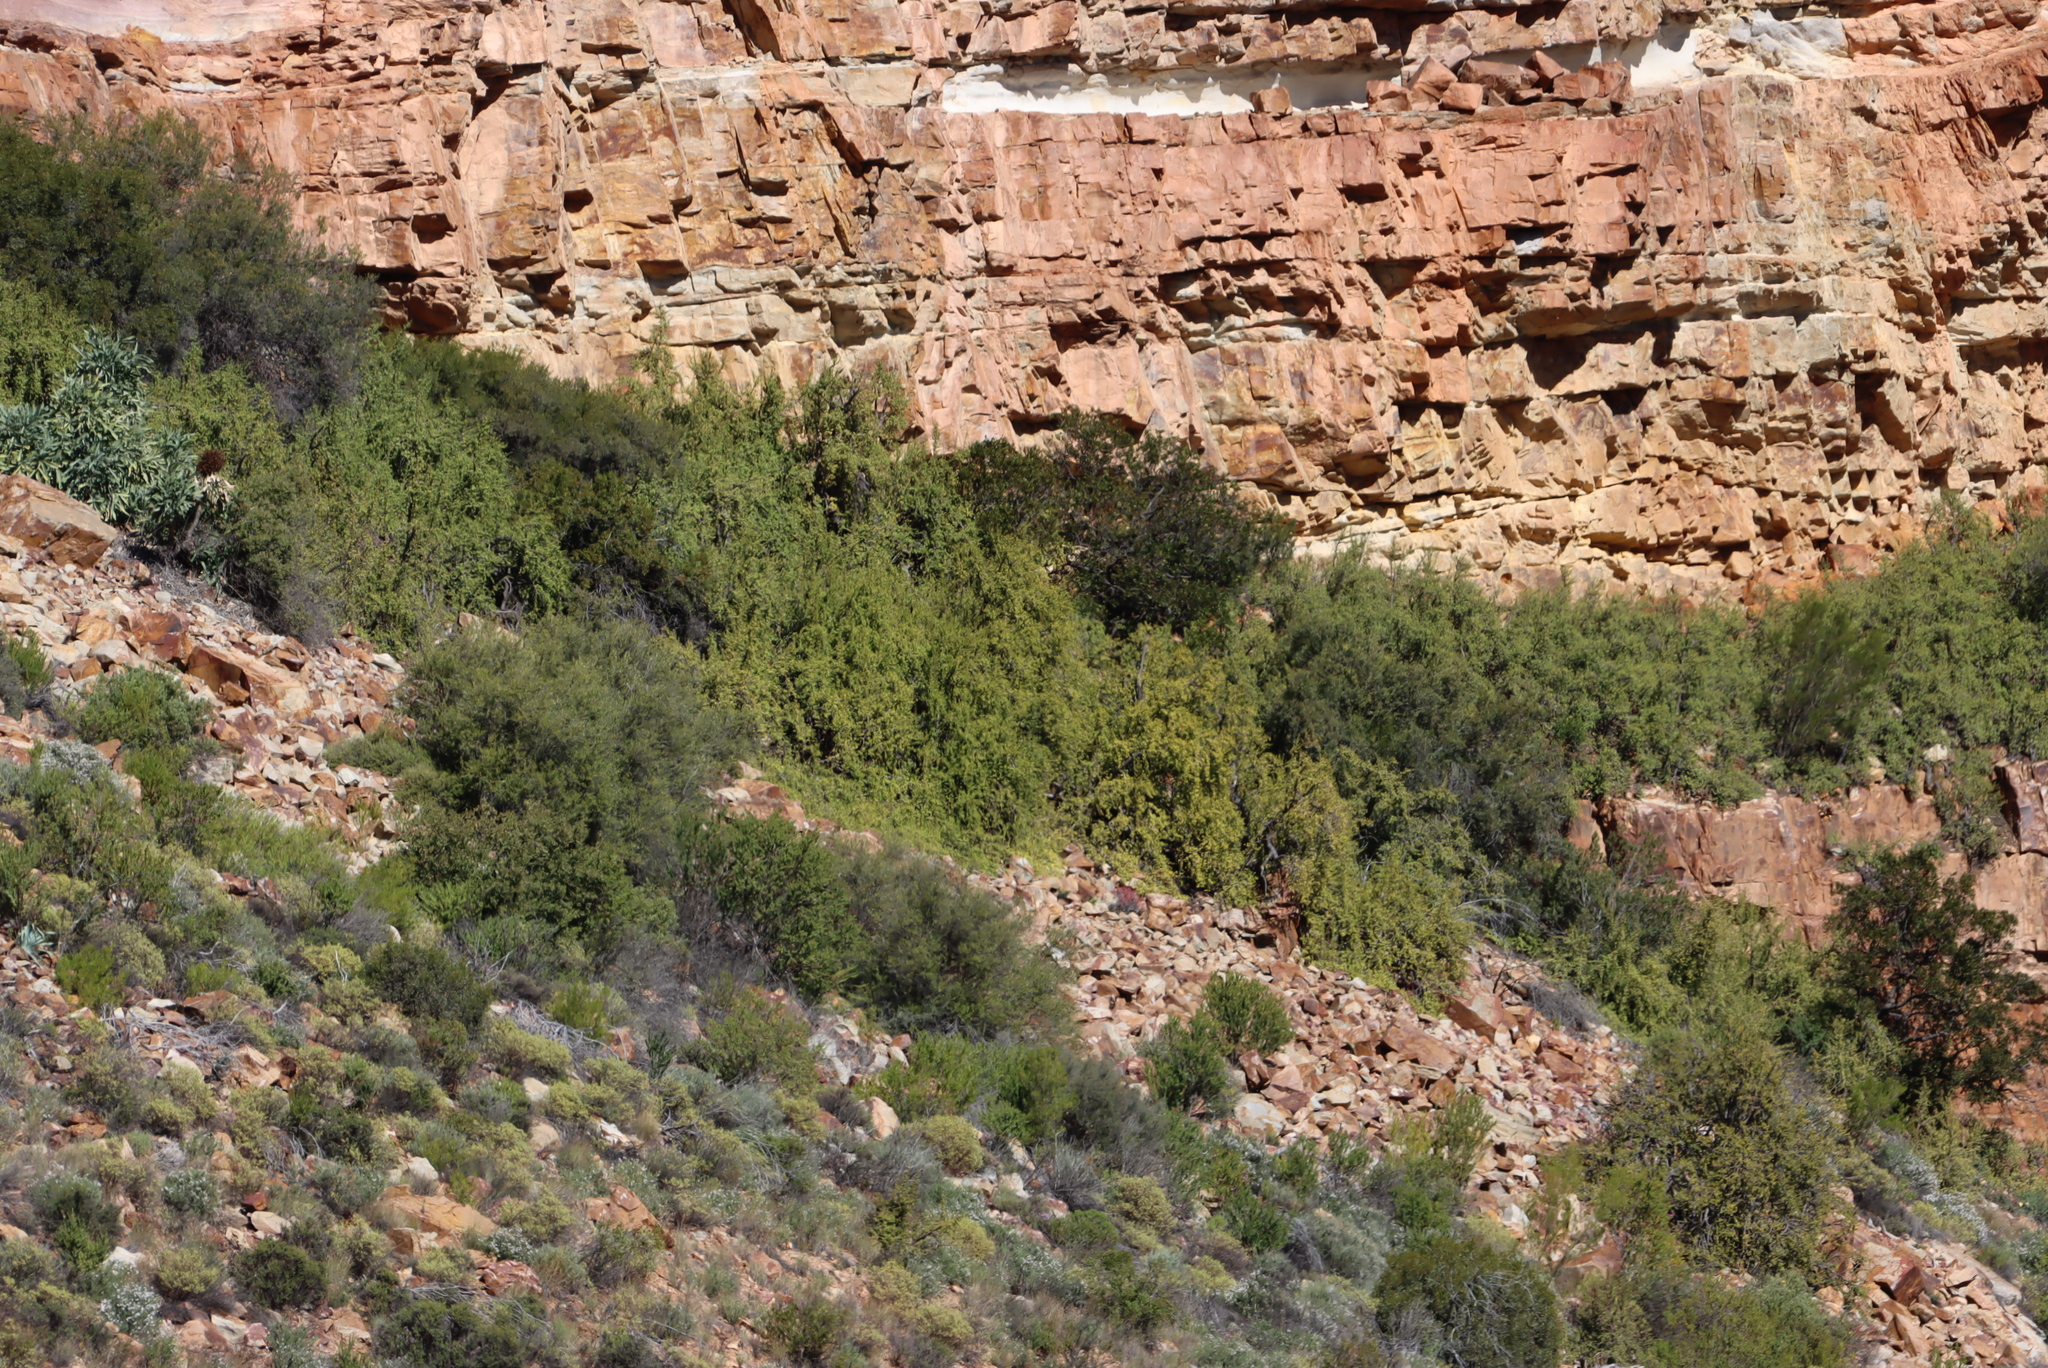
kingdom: Plantae
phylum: Tracheophyta
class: Magnoliopsida
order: Caryophyllales
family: Didiereaceae
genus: Portulacaria
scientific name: Portulacaria afra
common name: Elephant-bush
